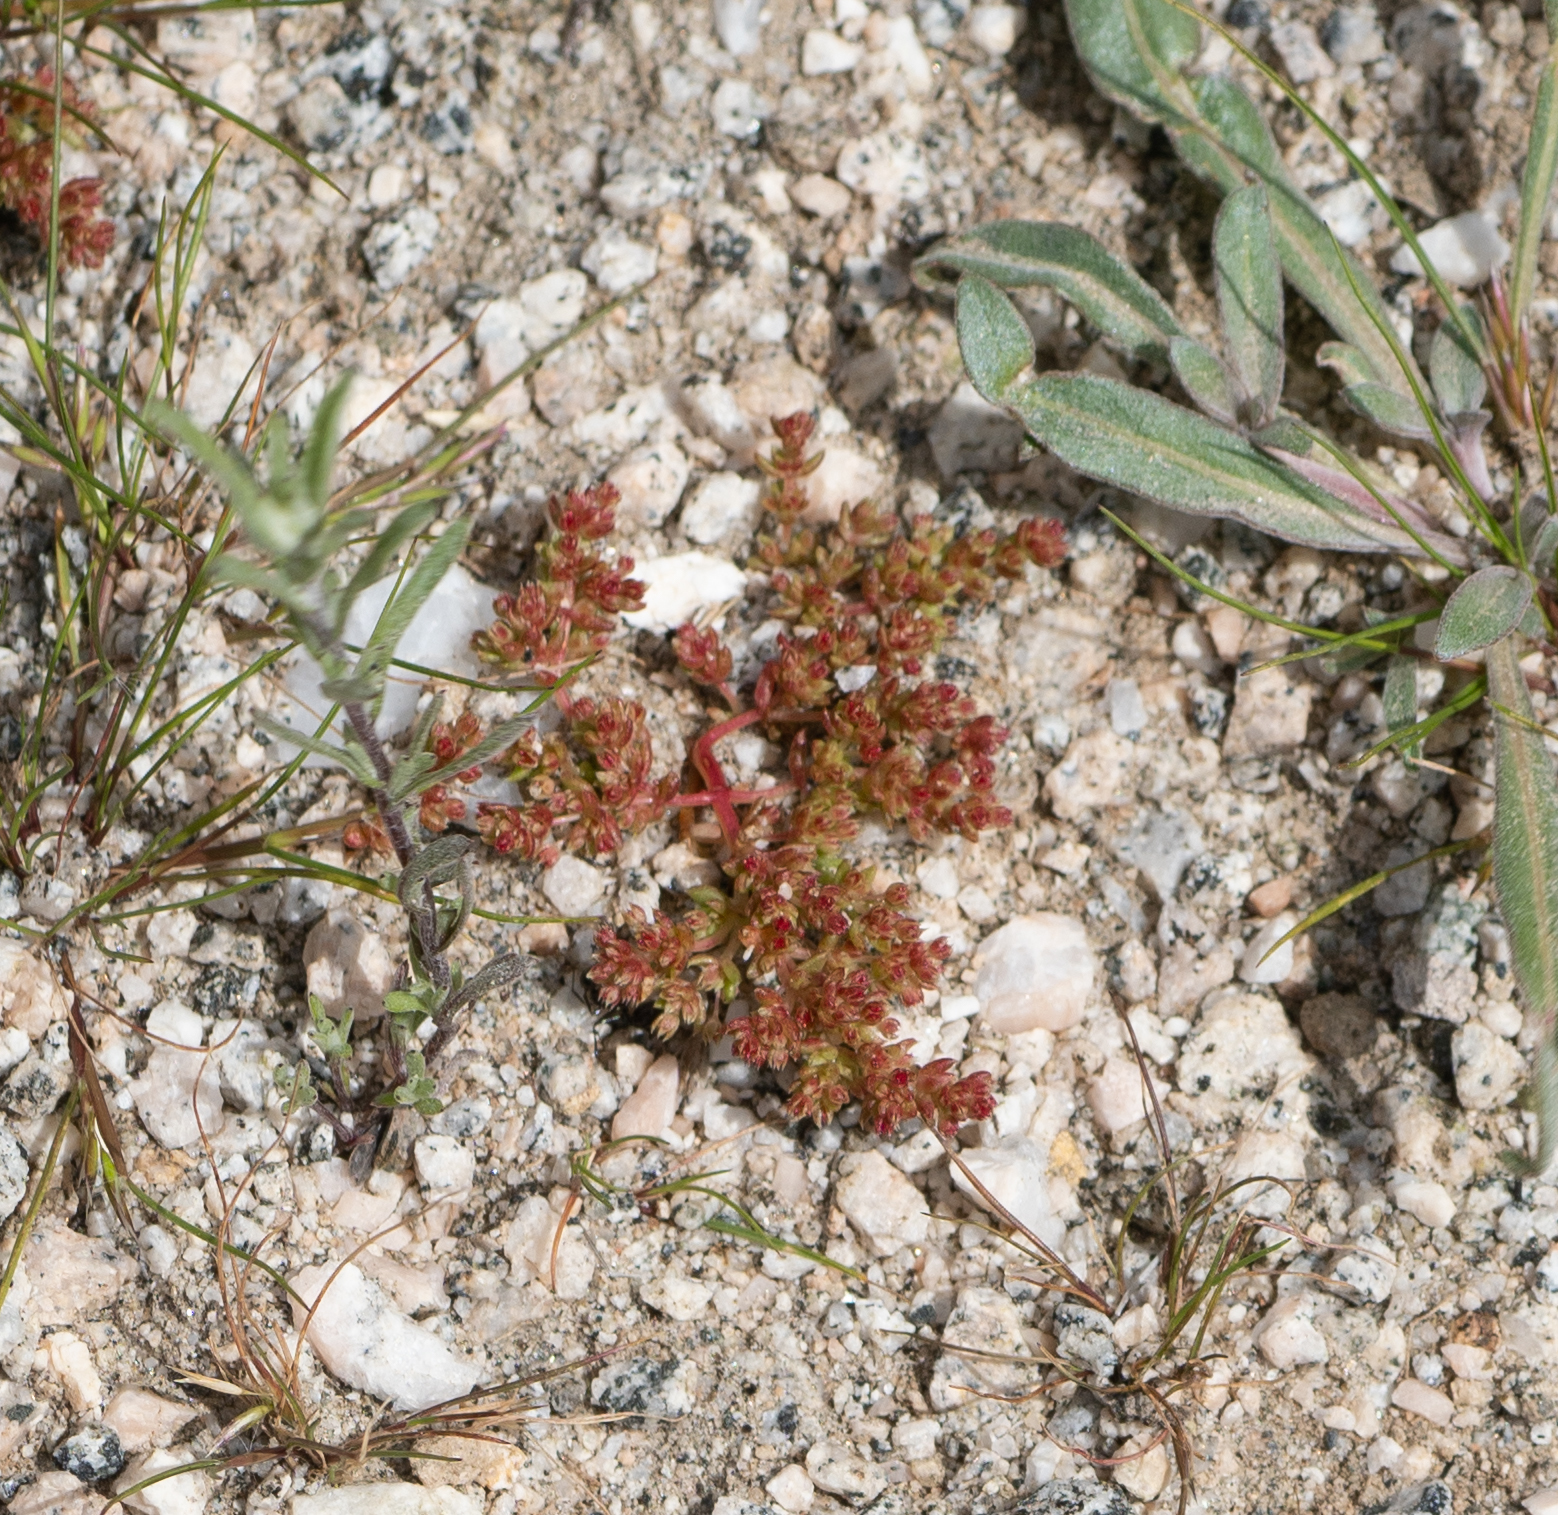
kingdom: Plantae
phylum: Tracheophyta
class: Magnoliopsida
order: Saxifragales
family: Crassulaceae
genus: Crassula
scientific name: Crassula connata
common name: Erect pygmyweed
